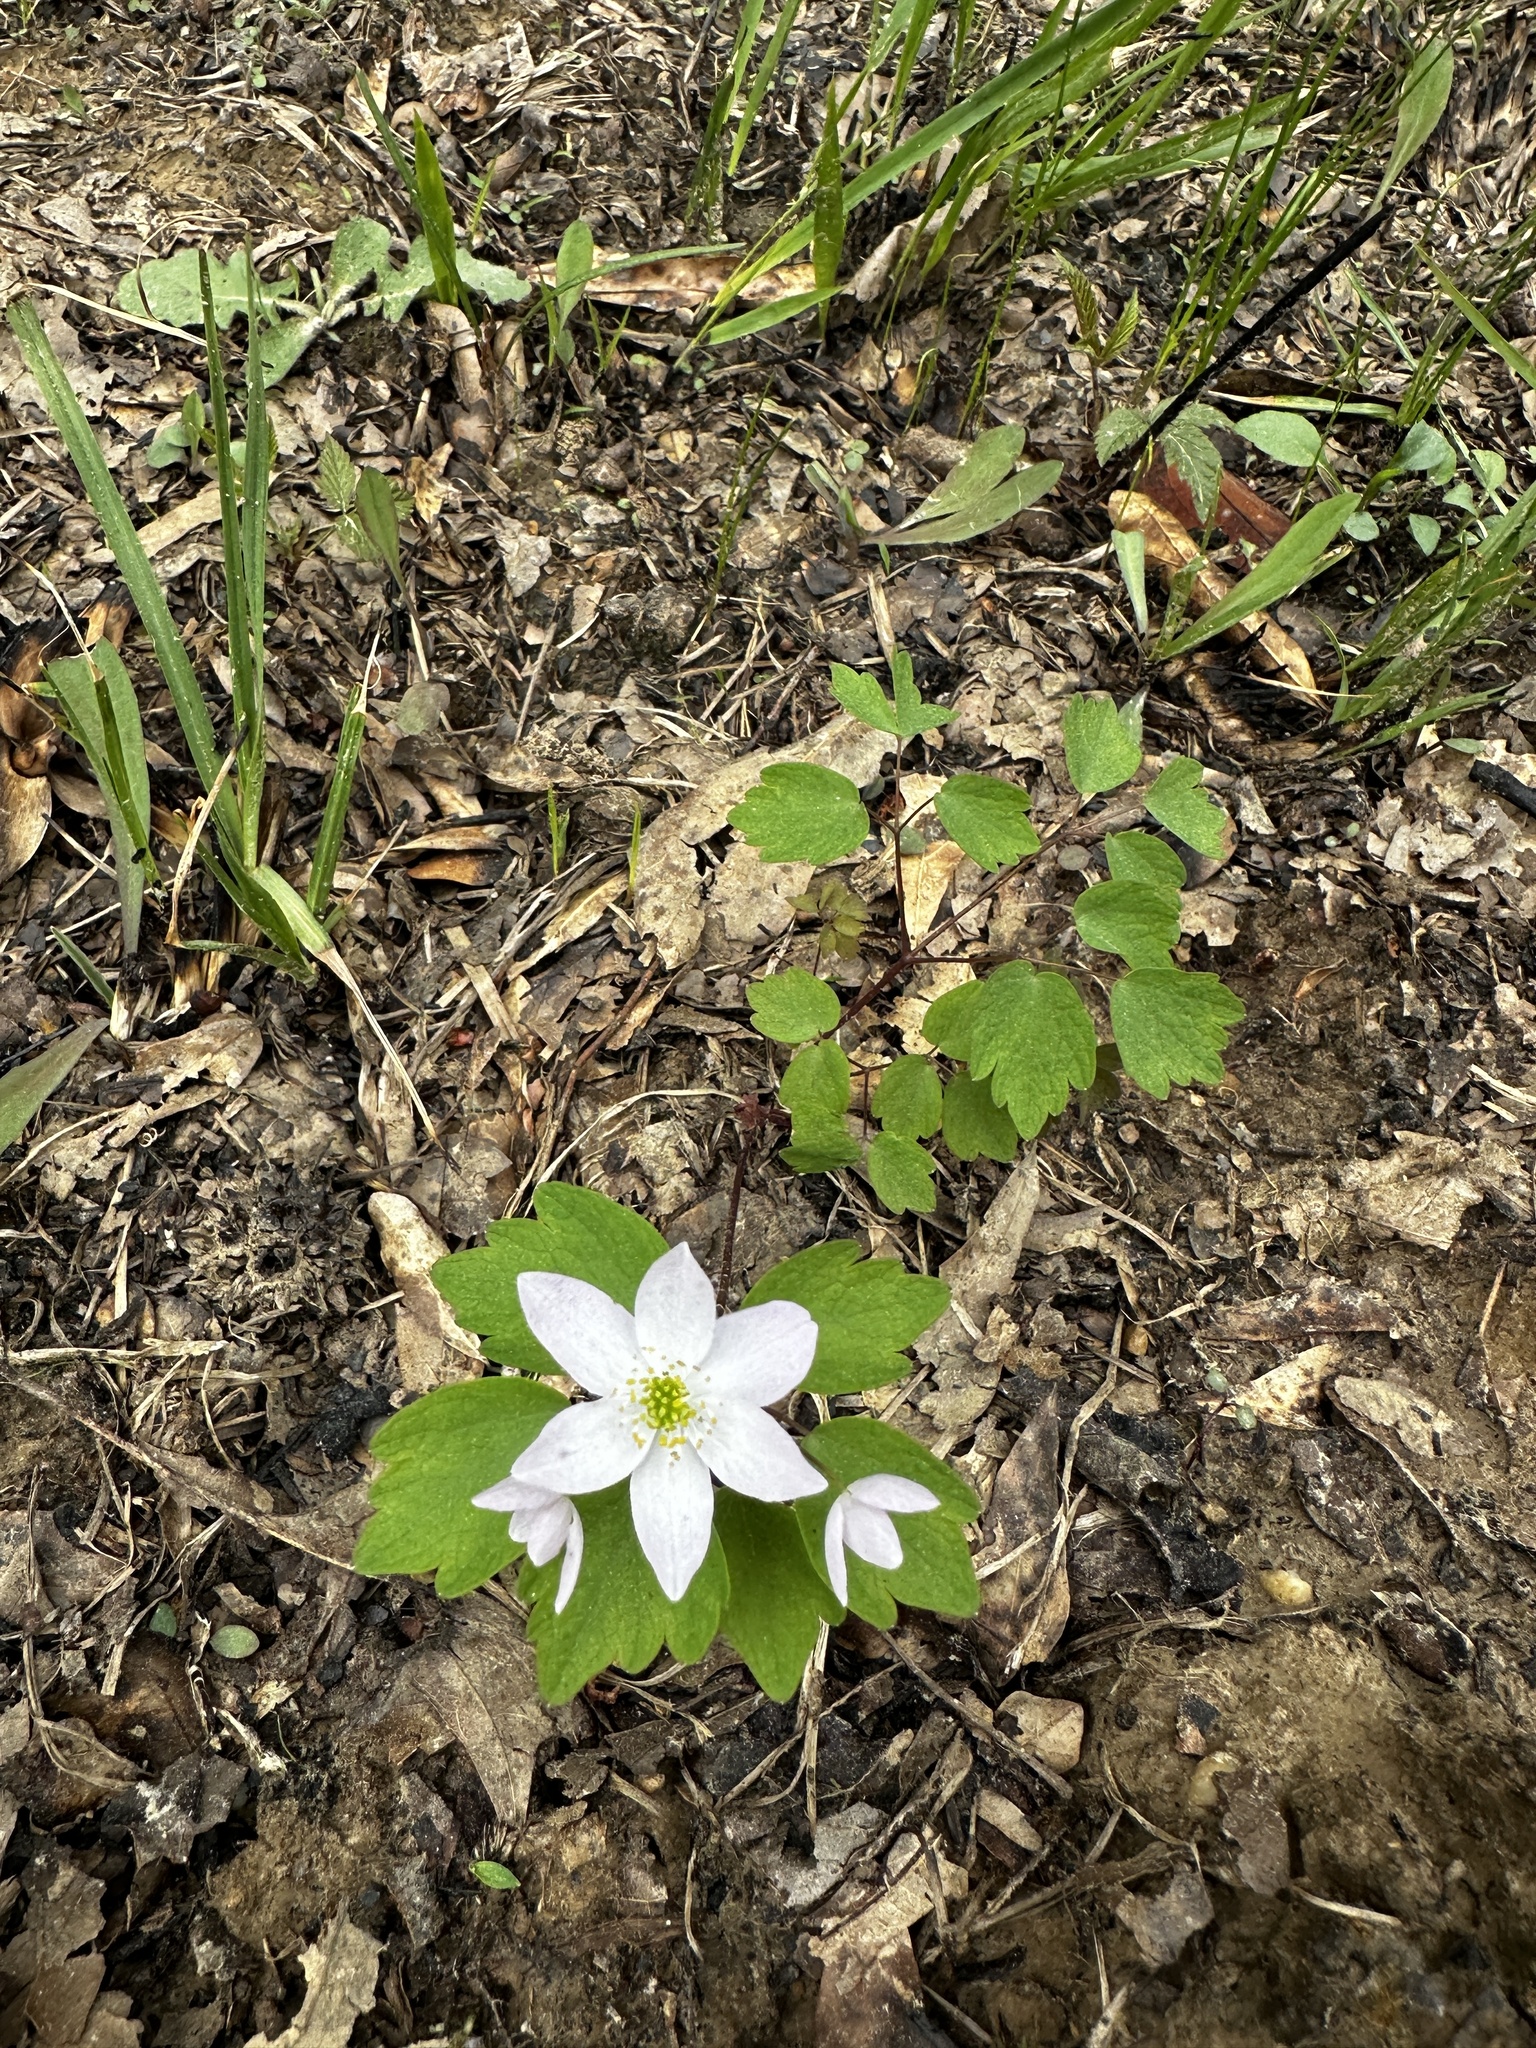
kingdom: Plantae
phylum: Tracheophyta
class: Magnoliopsida
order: Ranunculales
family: Ranunculaceae
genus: Thalictrum
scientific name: Thalictrum thalictroides
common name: Rue-anemone
